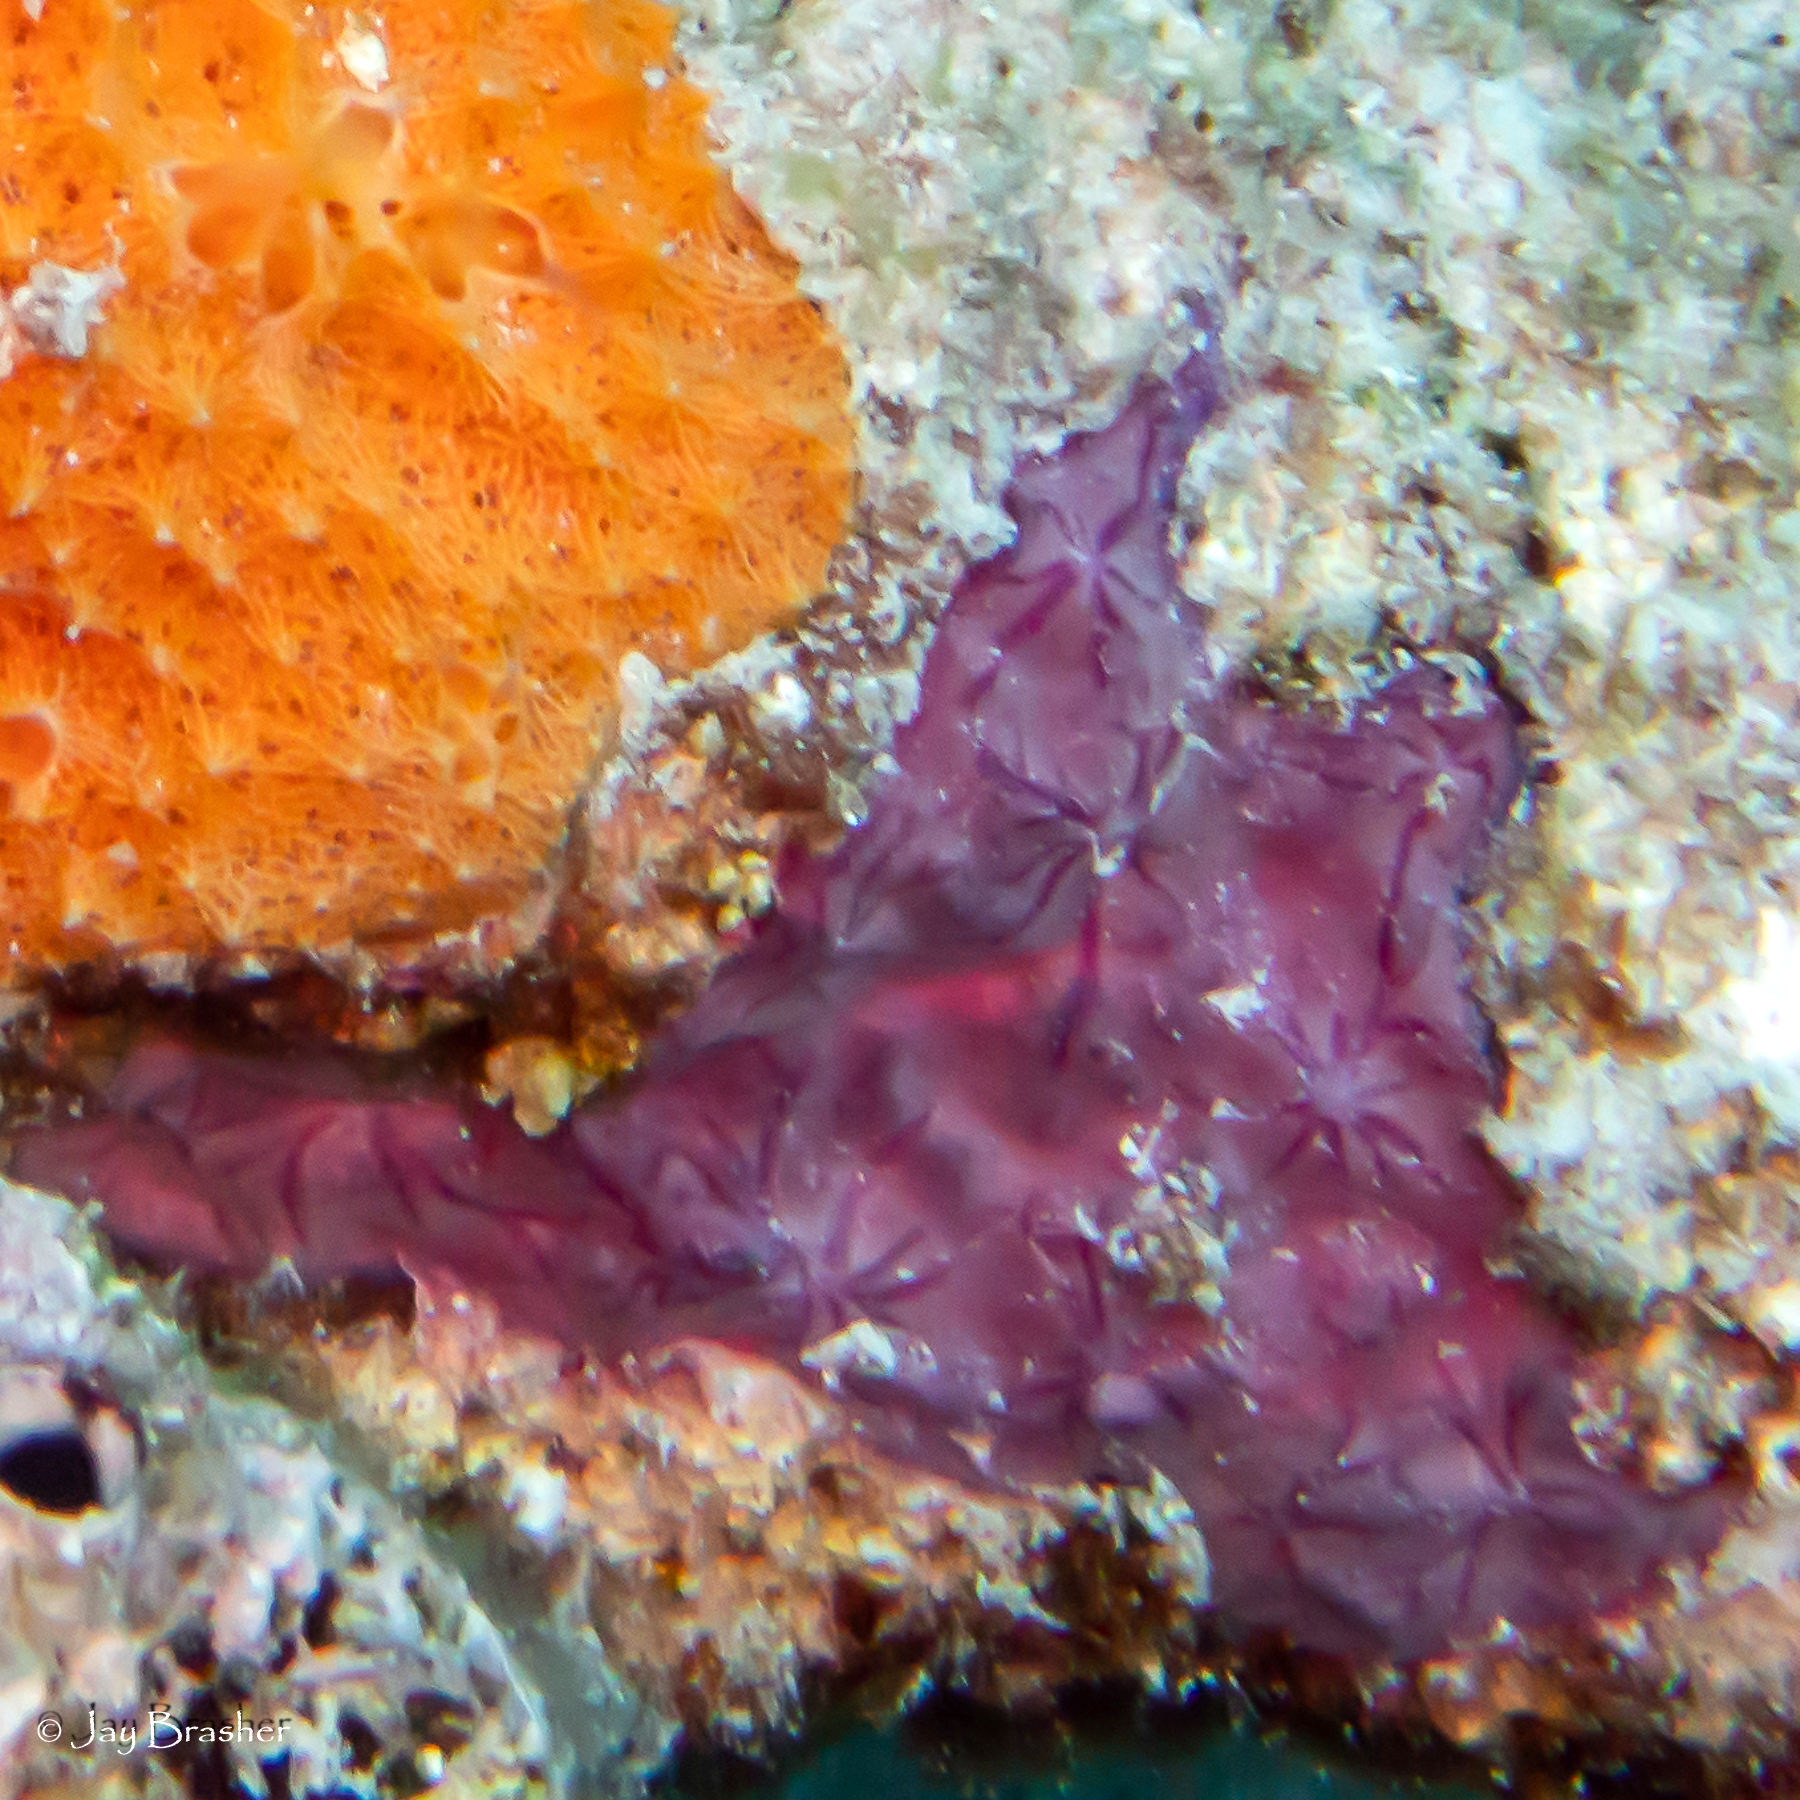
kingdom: Animalia
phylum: Porifera
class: Demospongiae
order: Chondrillida
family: Halisarcidae
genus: Halisarca
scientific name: Halisarca caerulea
